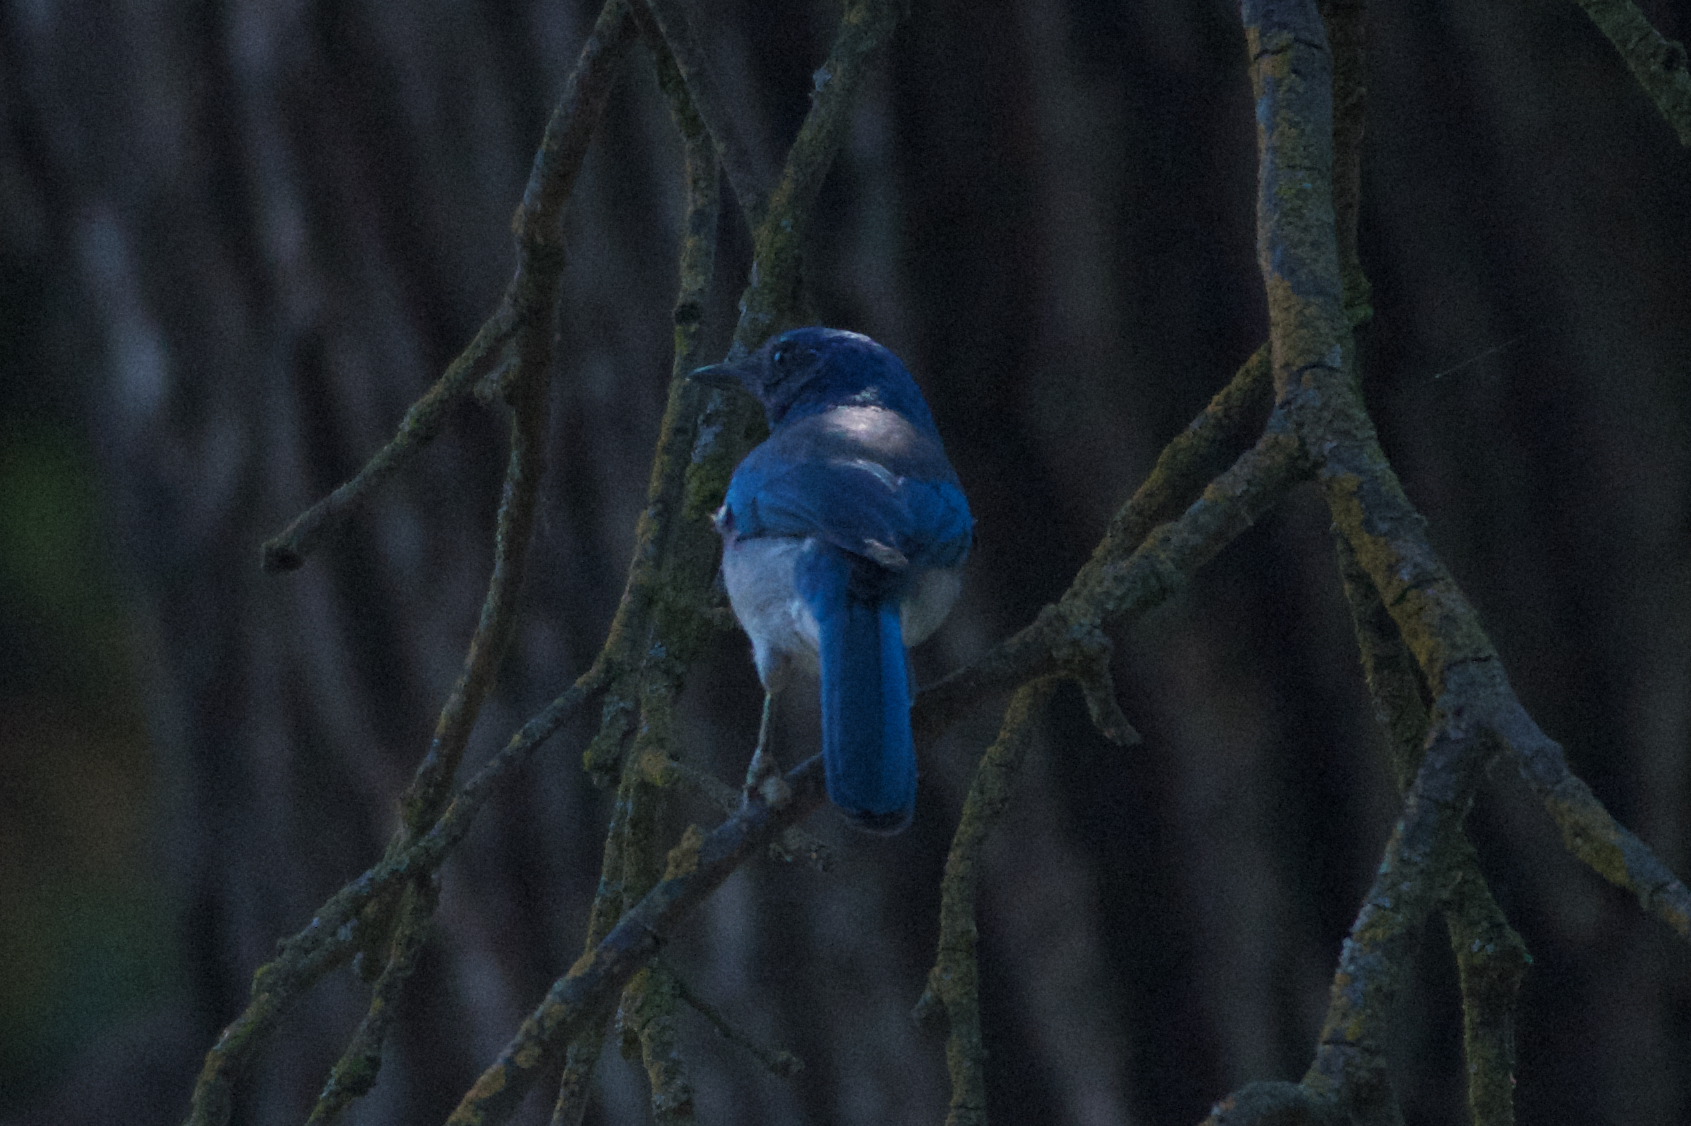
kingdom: Animalia
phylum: Chordata
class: Aves
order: Passeriformes
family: Corvidae
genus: Aphelocoma
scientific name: Aphelocoma californica
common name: California scrub-jay
